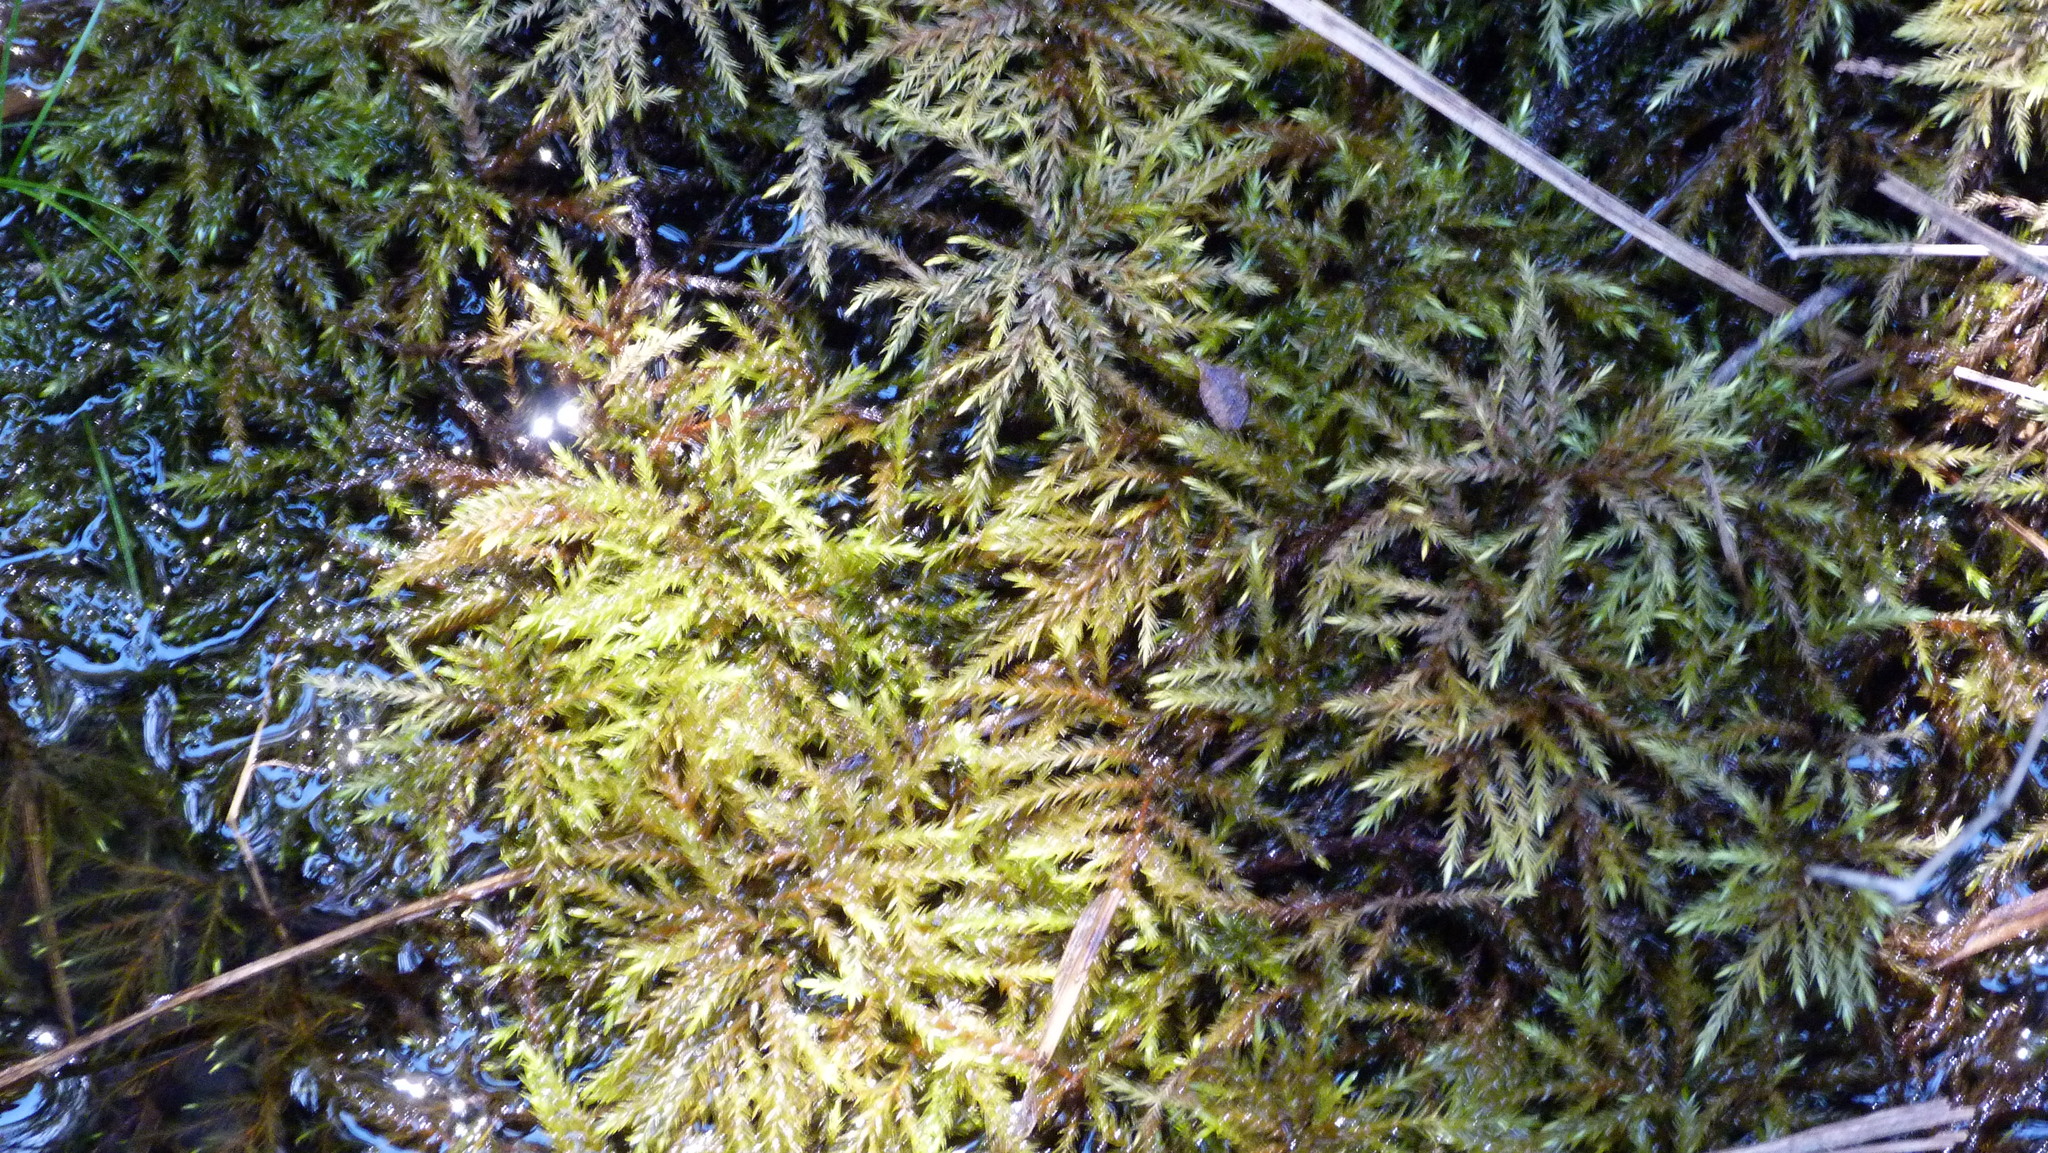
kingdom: Plantae
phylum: Bryophyta
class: Bryopsida
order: Hypnodendrales
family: Spiridentaceae
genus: Hypnodendron
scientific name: Hypnodendron spininervium
